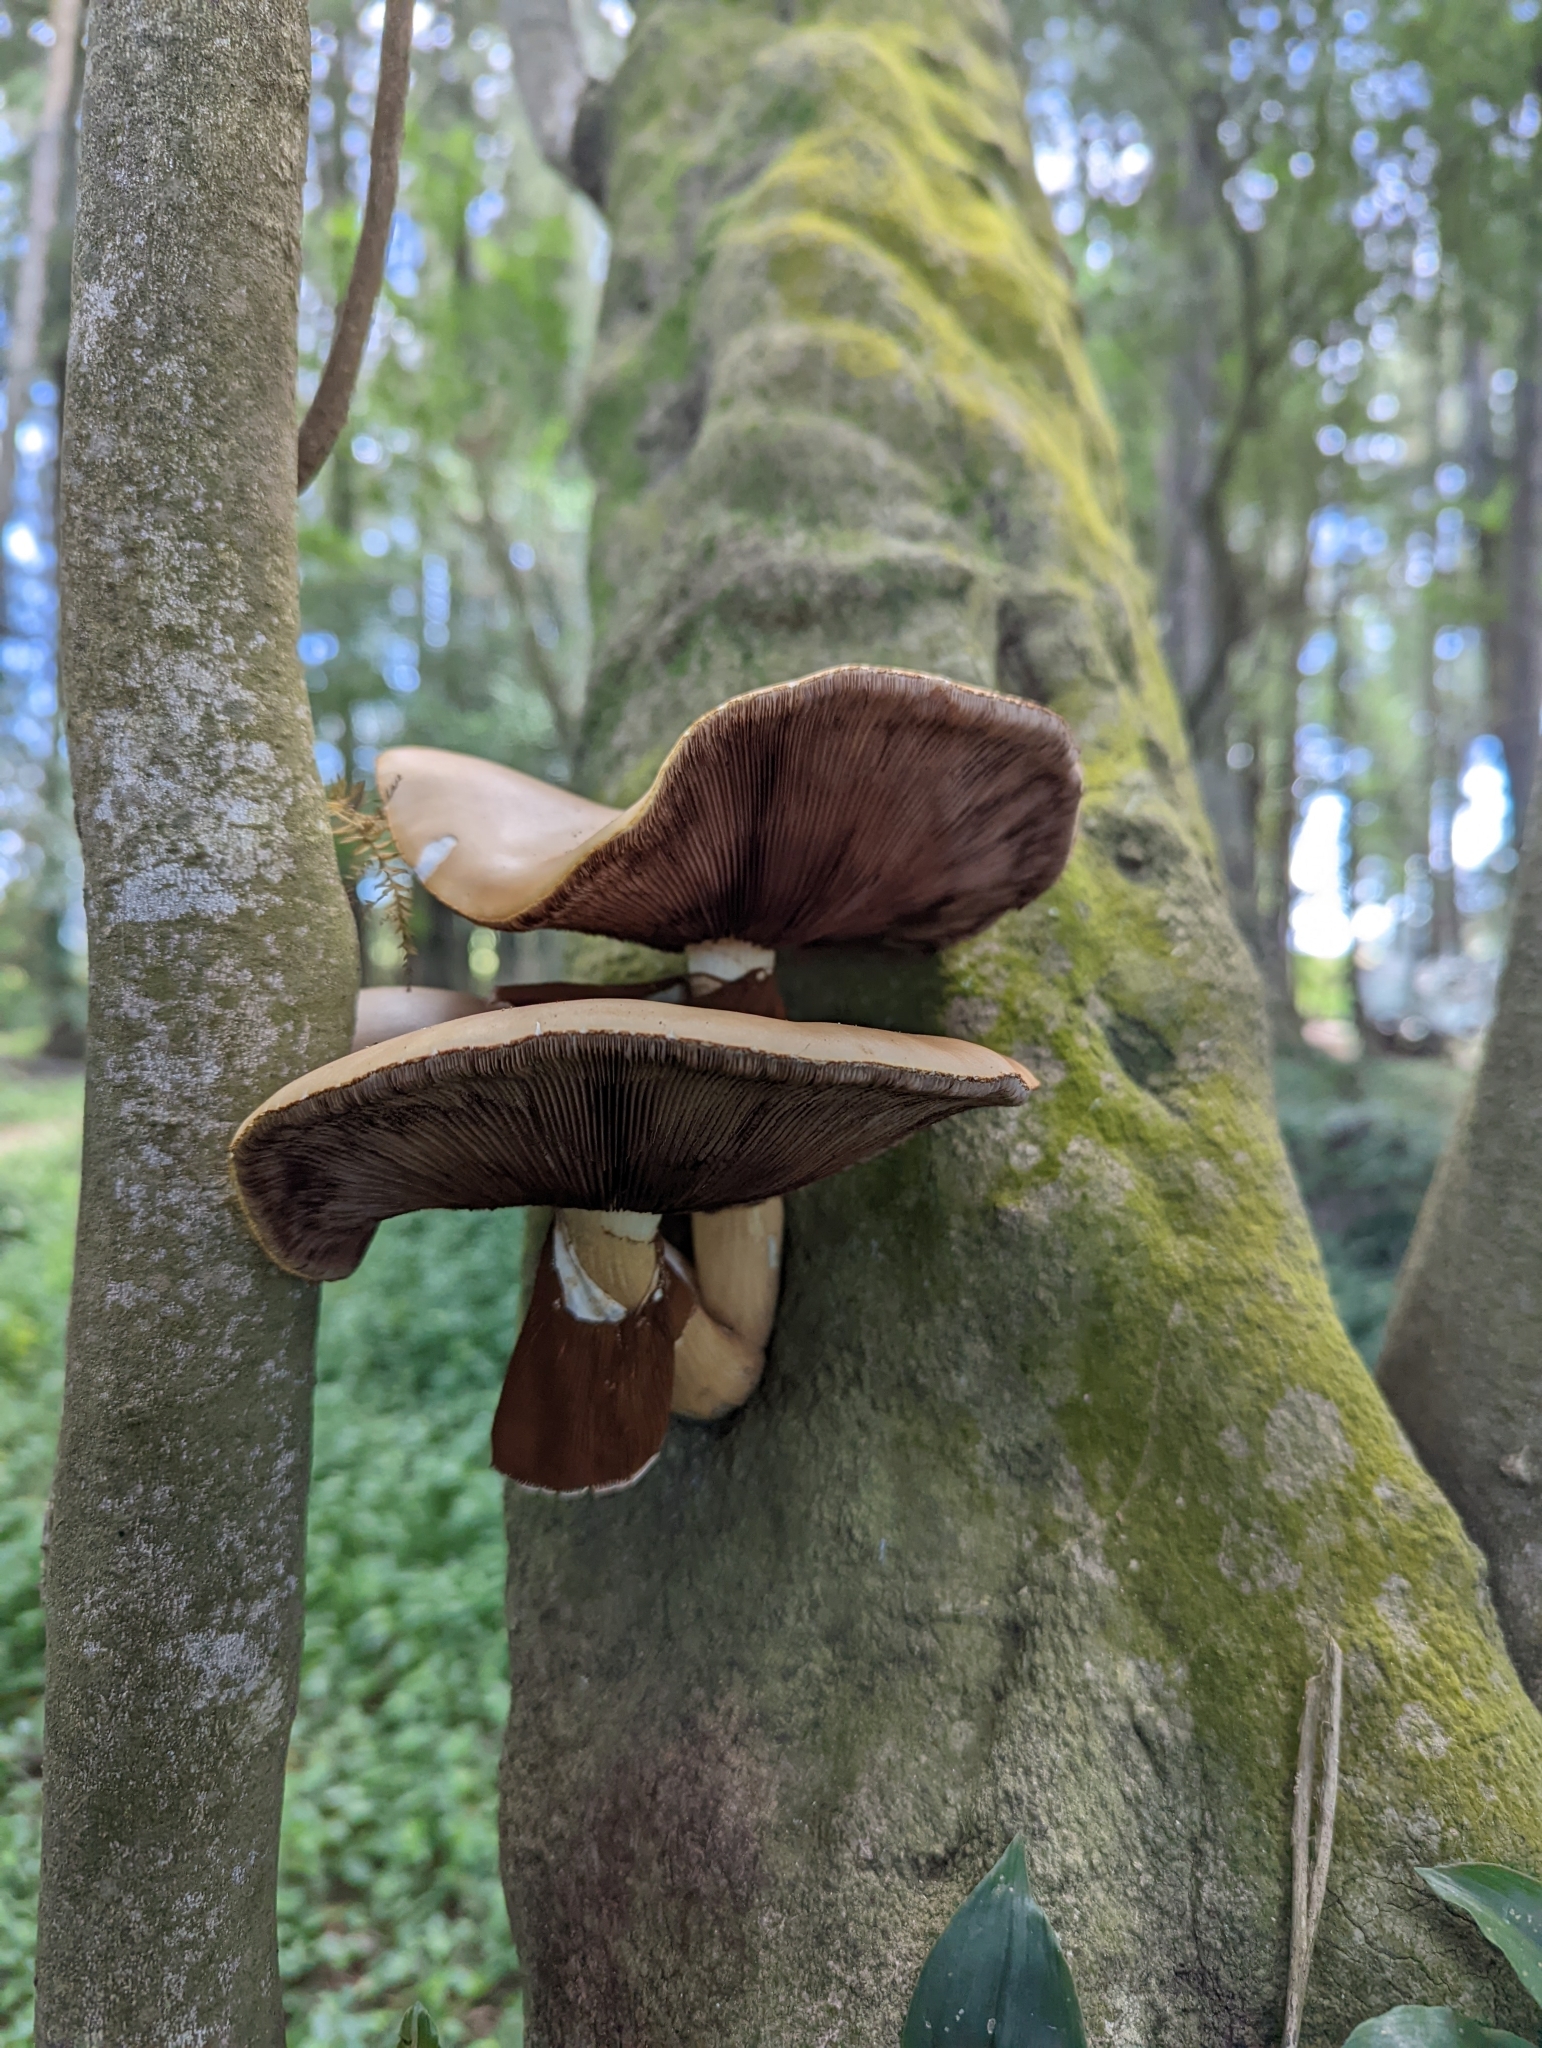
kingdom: Fungi
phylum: Basidiomycota
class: Agaricomycetes
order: Agaricales
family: Tubariaceae
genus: Cyclocybe
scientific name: Cyclocybe parasitica
